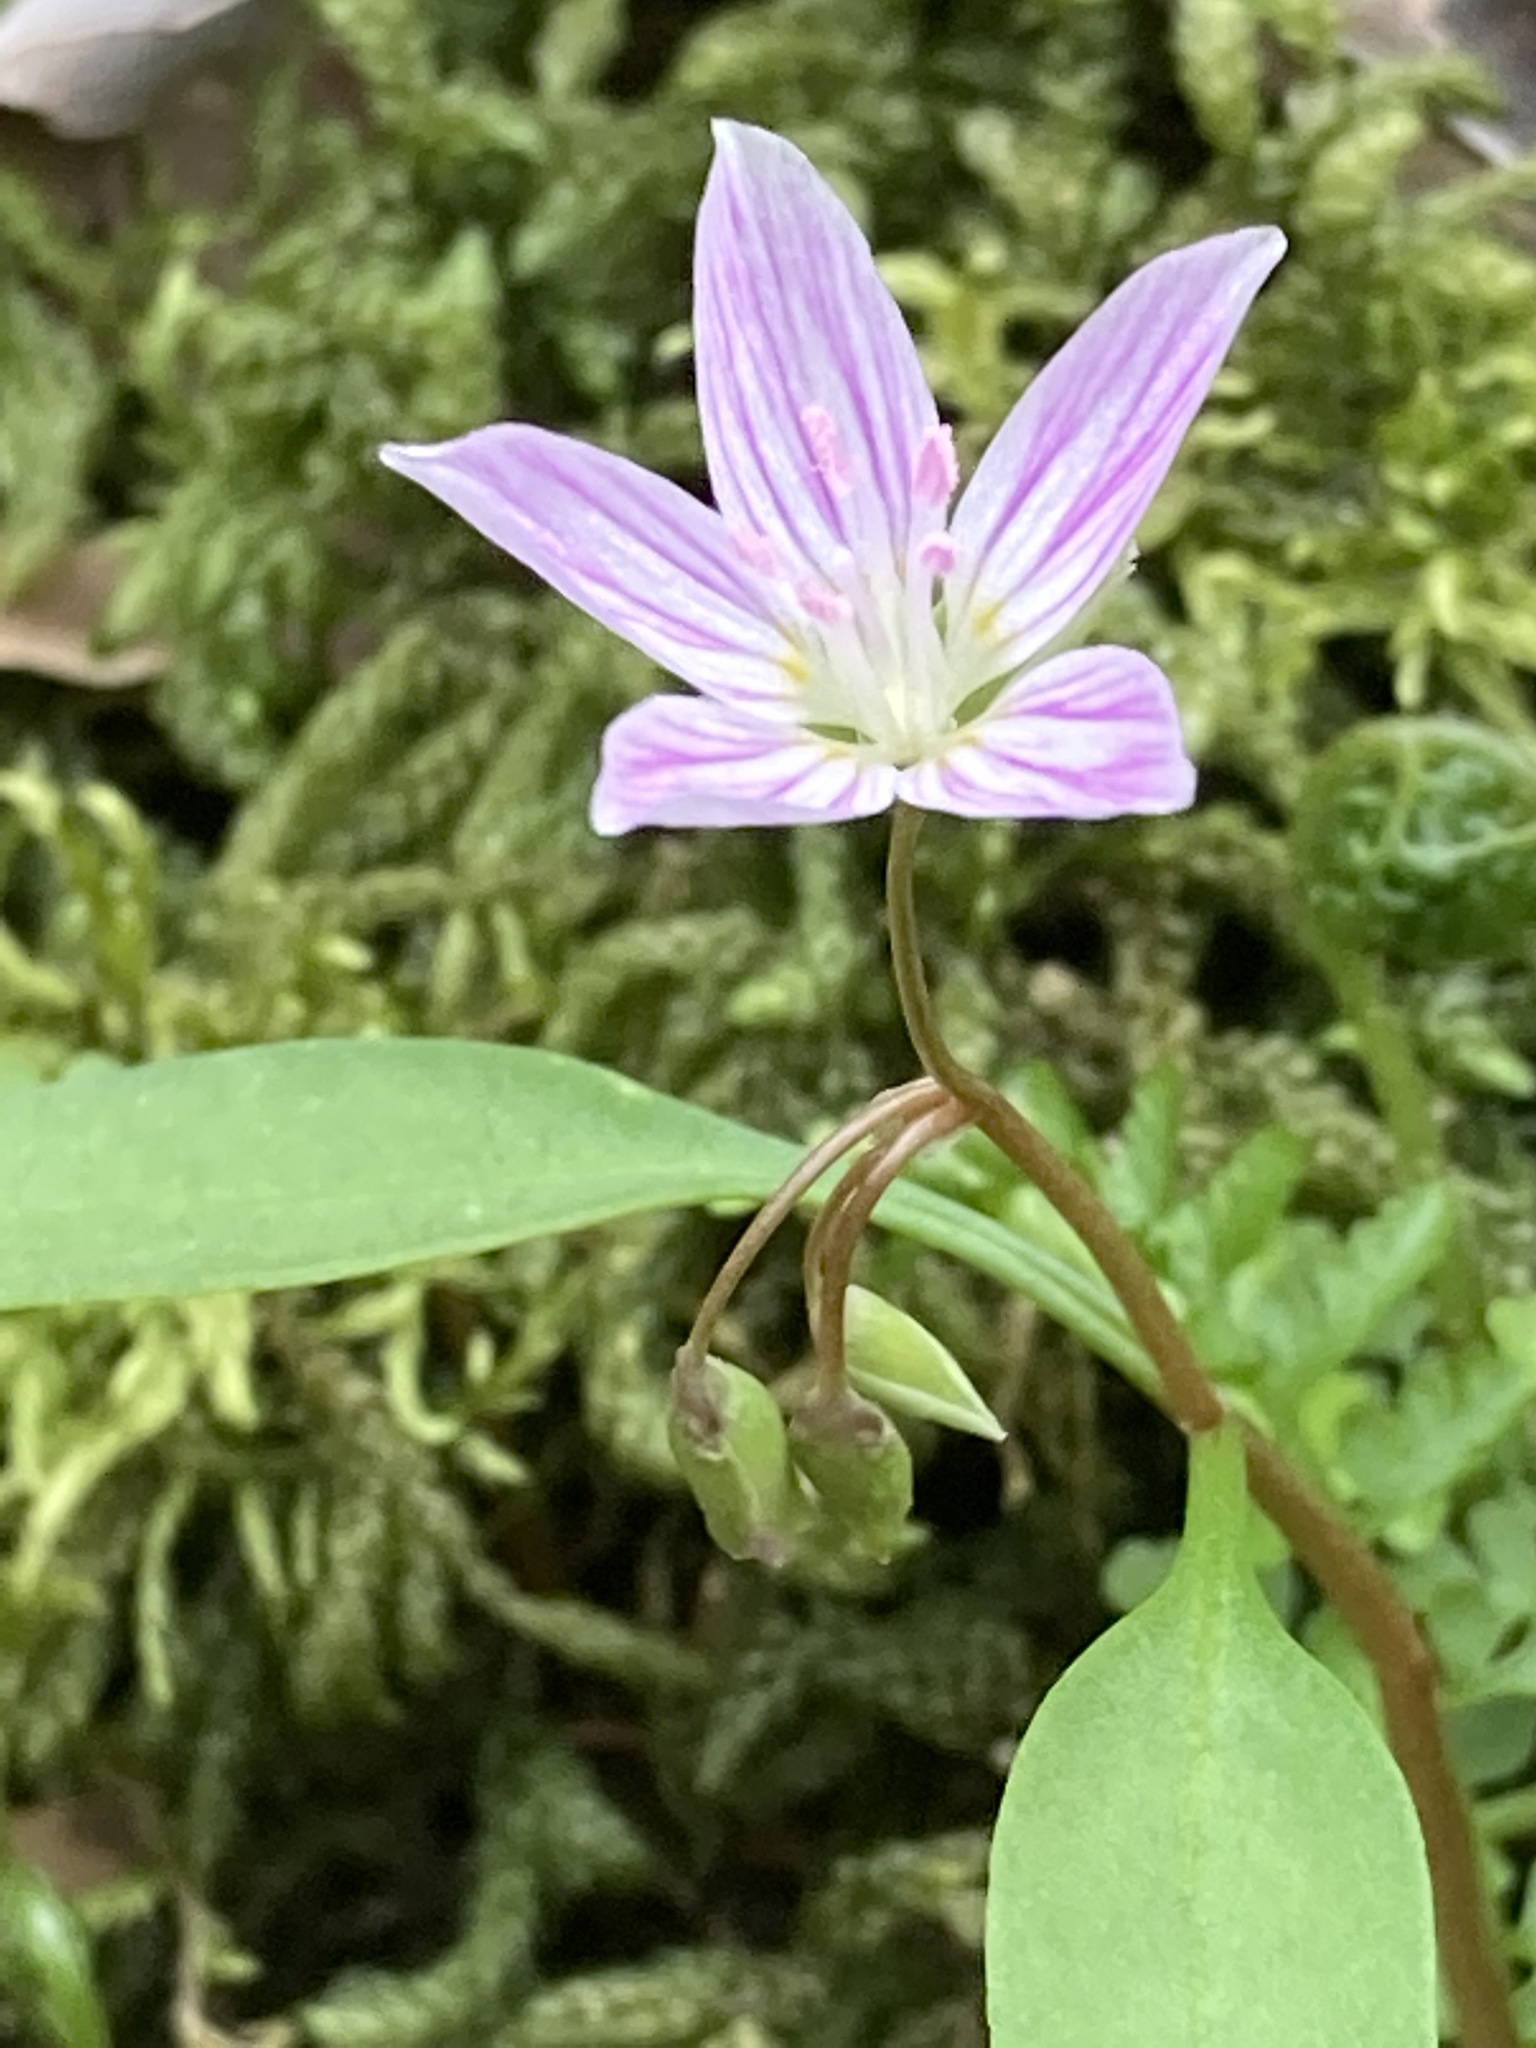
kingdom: Plantae
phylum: Tracheophyta
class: Magnoliopsida
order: Caryophyllales
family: Montiaceae
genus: Claytonia
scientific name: Claytonia caroliniana
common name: Carolina spring beauty
